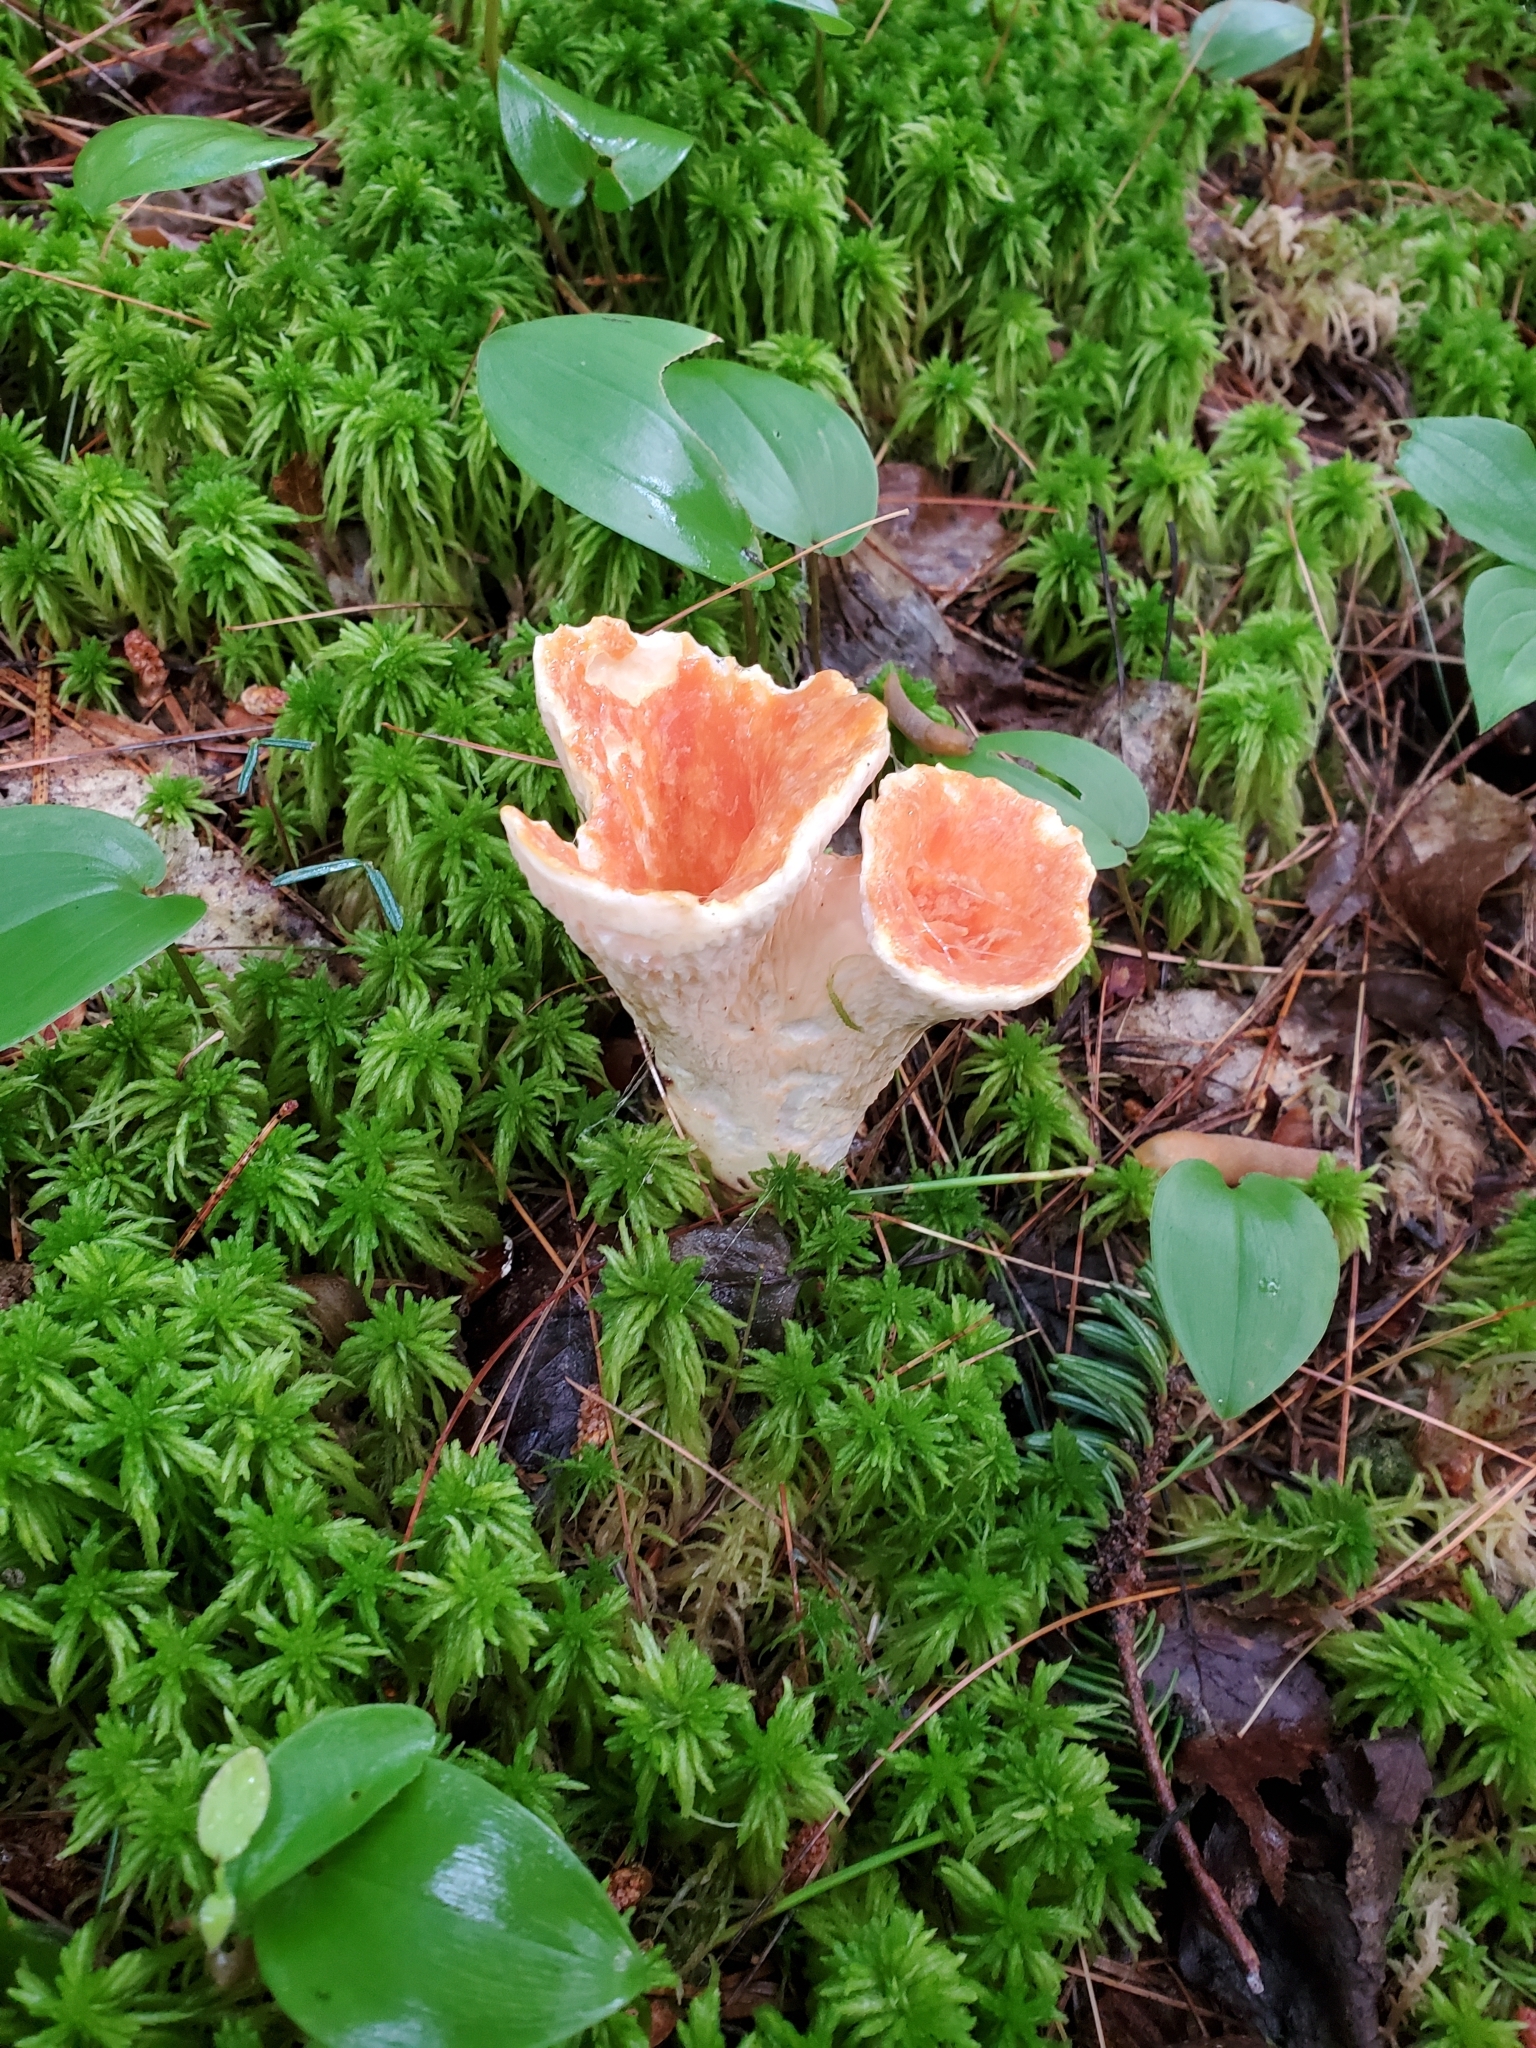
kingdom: Fungi
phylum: Basidiomycota
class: Agaricomycetes
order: Gomphales
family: Gomphaceae
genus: Turbinellus
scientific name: Turbinellus floccosus
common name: Scaly chanterelle
